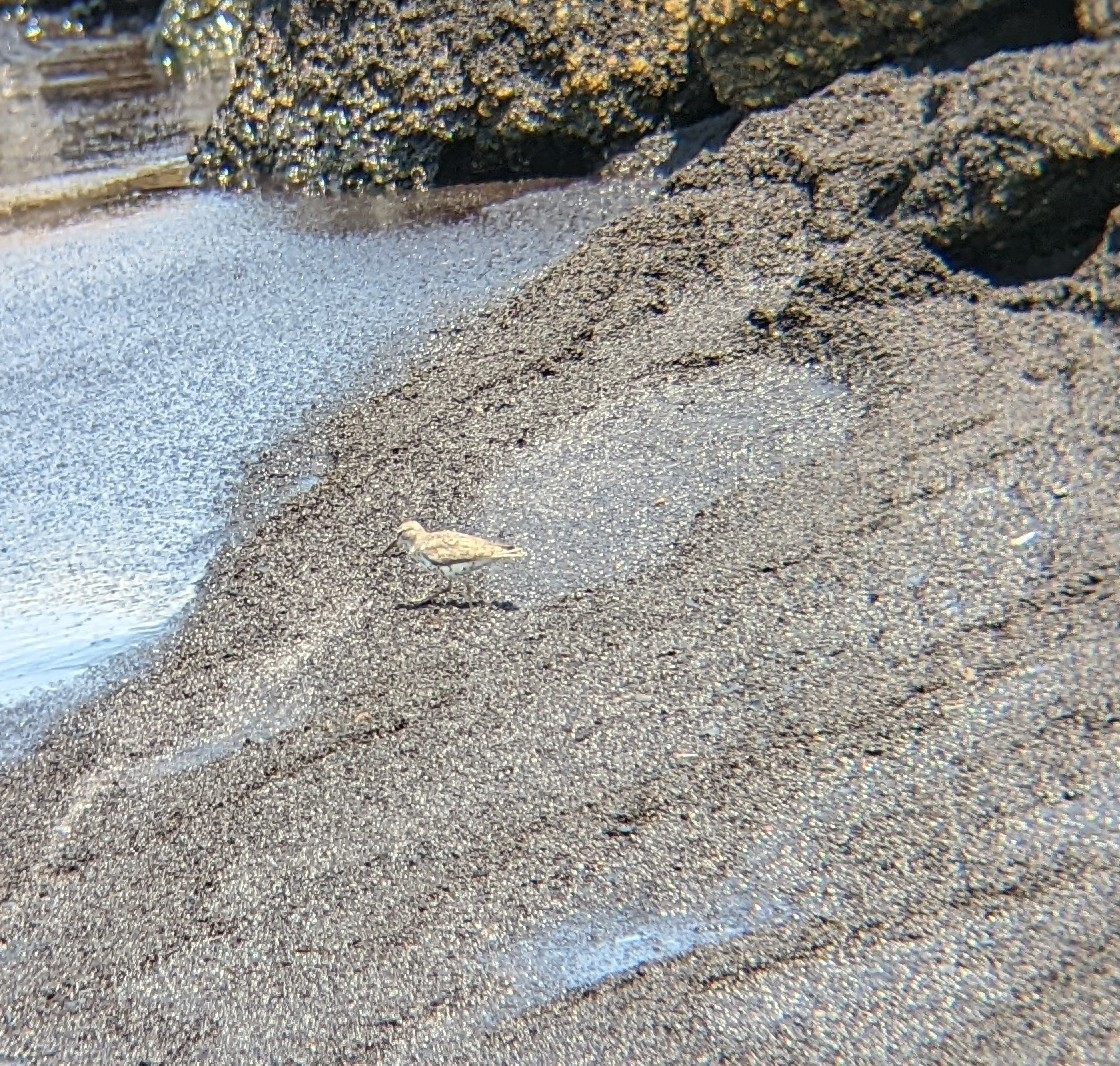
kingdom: Animalia
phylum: Chordata
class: Aves
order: Charadriiformes
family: Scolopacidae
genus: Actitis
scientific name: Actitis macularius
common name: Spotted sandpiper
